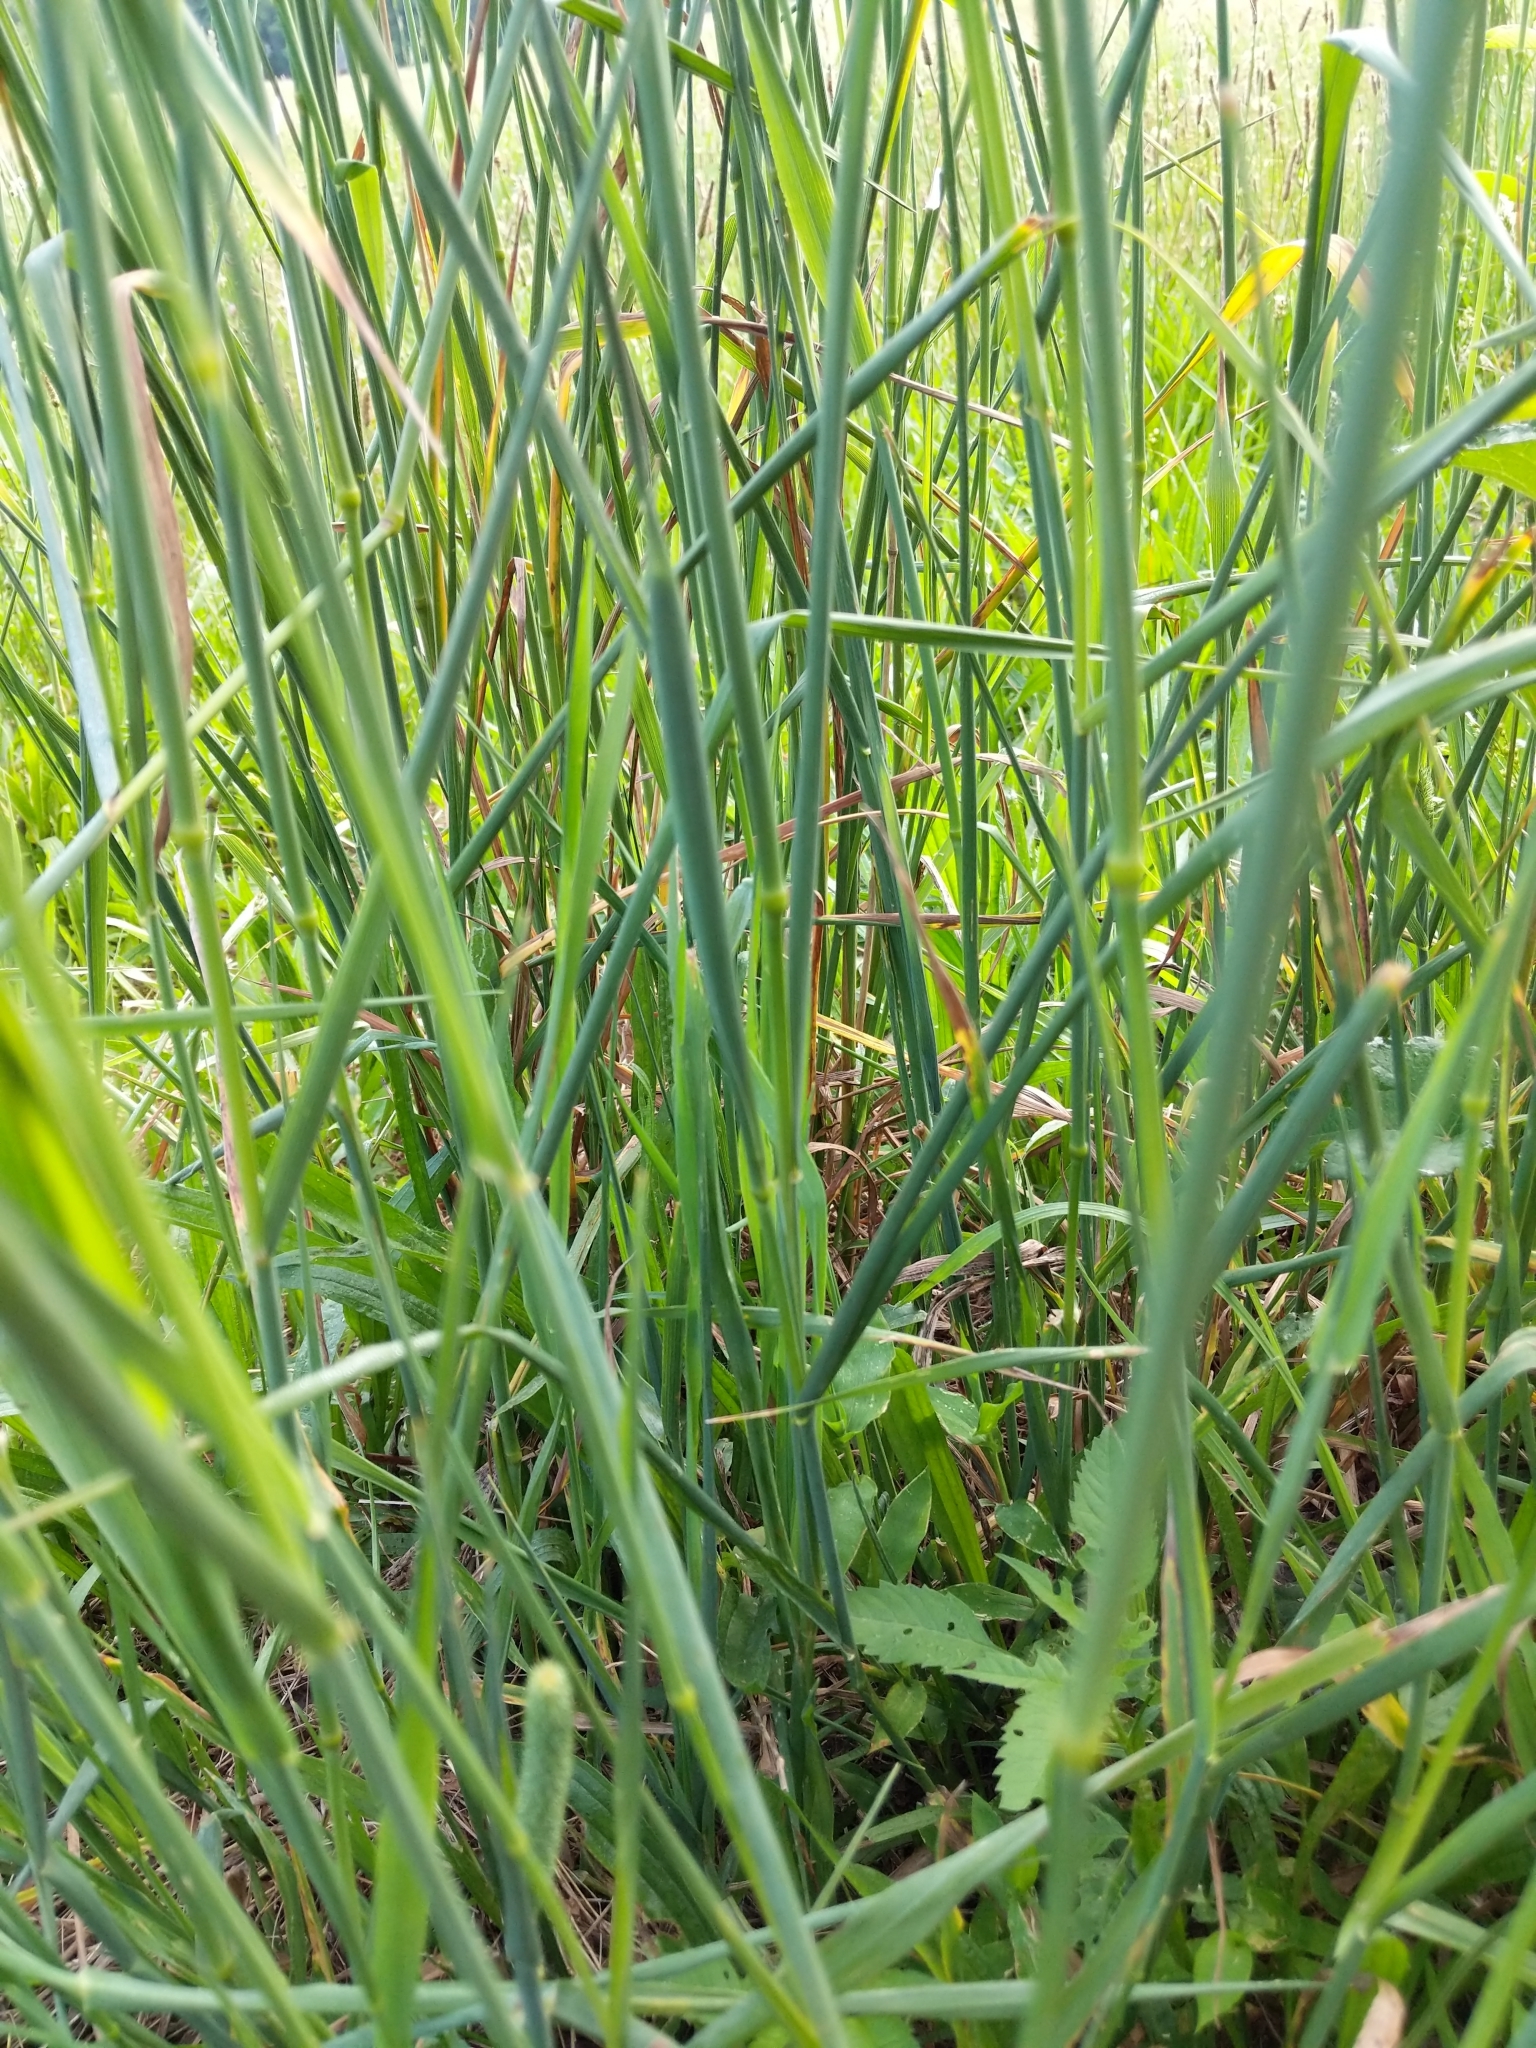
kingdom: Plantae
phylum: Tracheophyta
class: Liliopsida
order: Poales
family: Poaceae
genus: Phleum
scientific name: Phleum pratense
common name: Timothy grass
